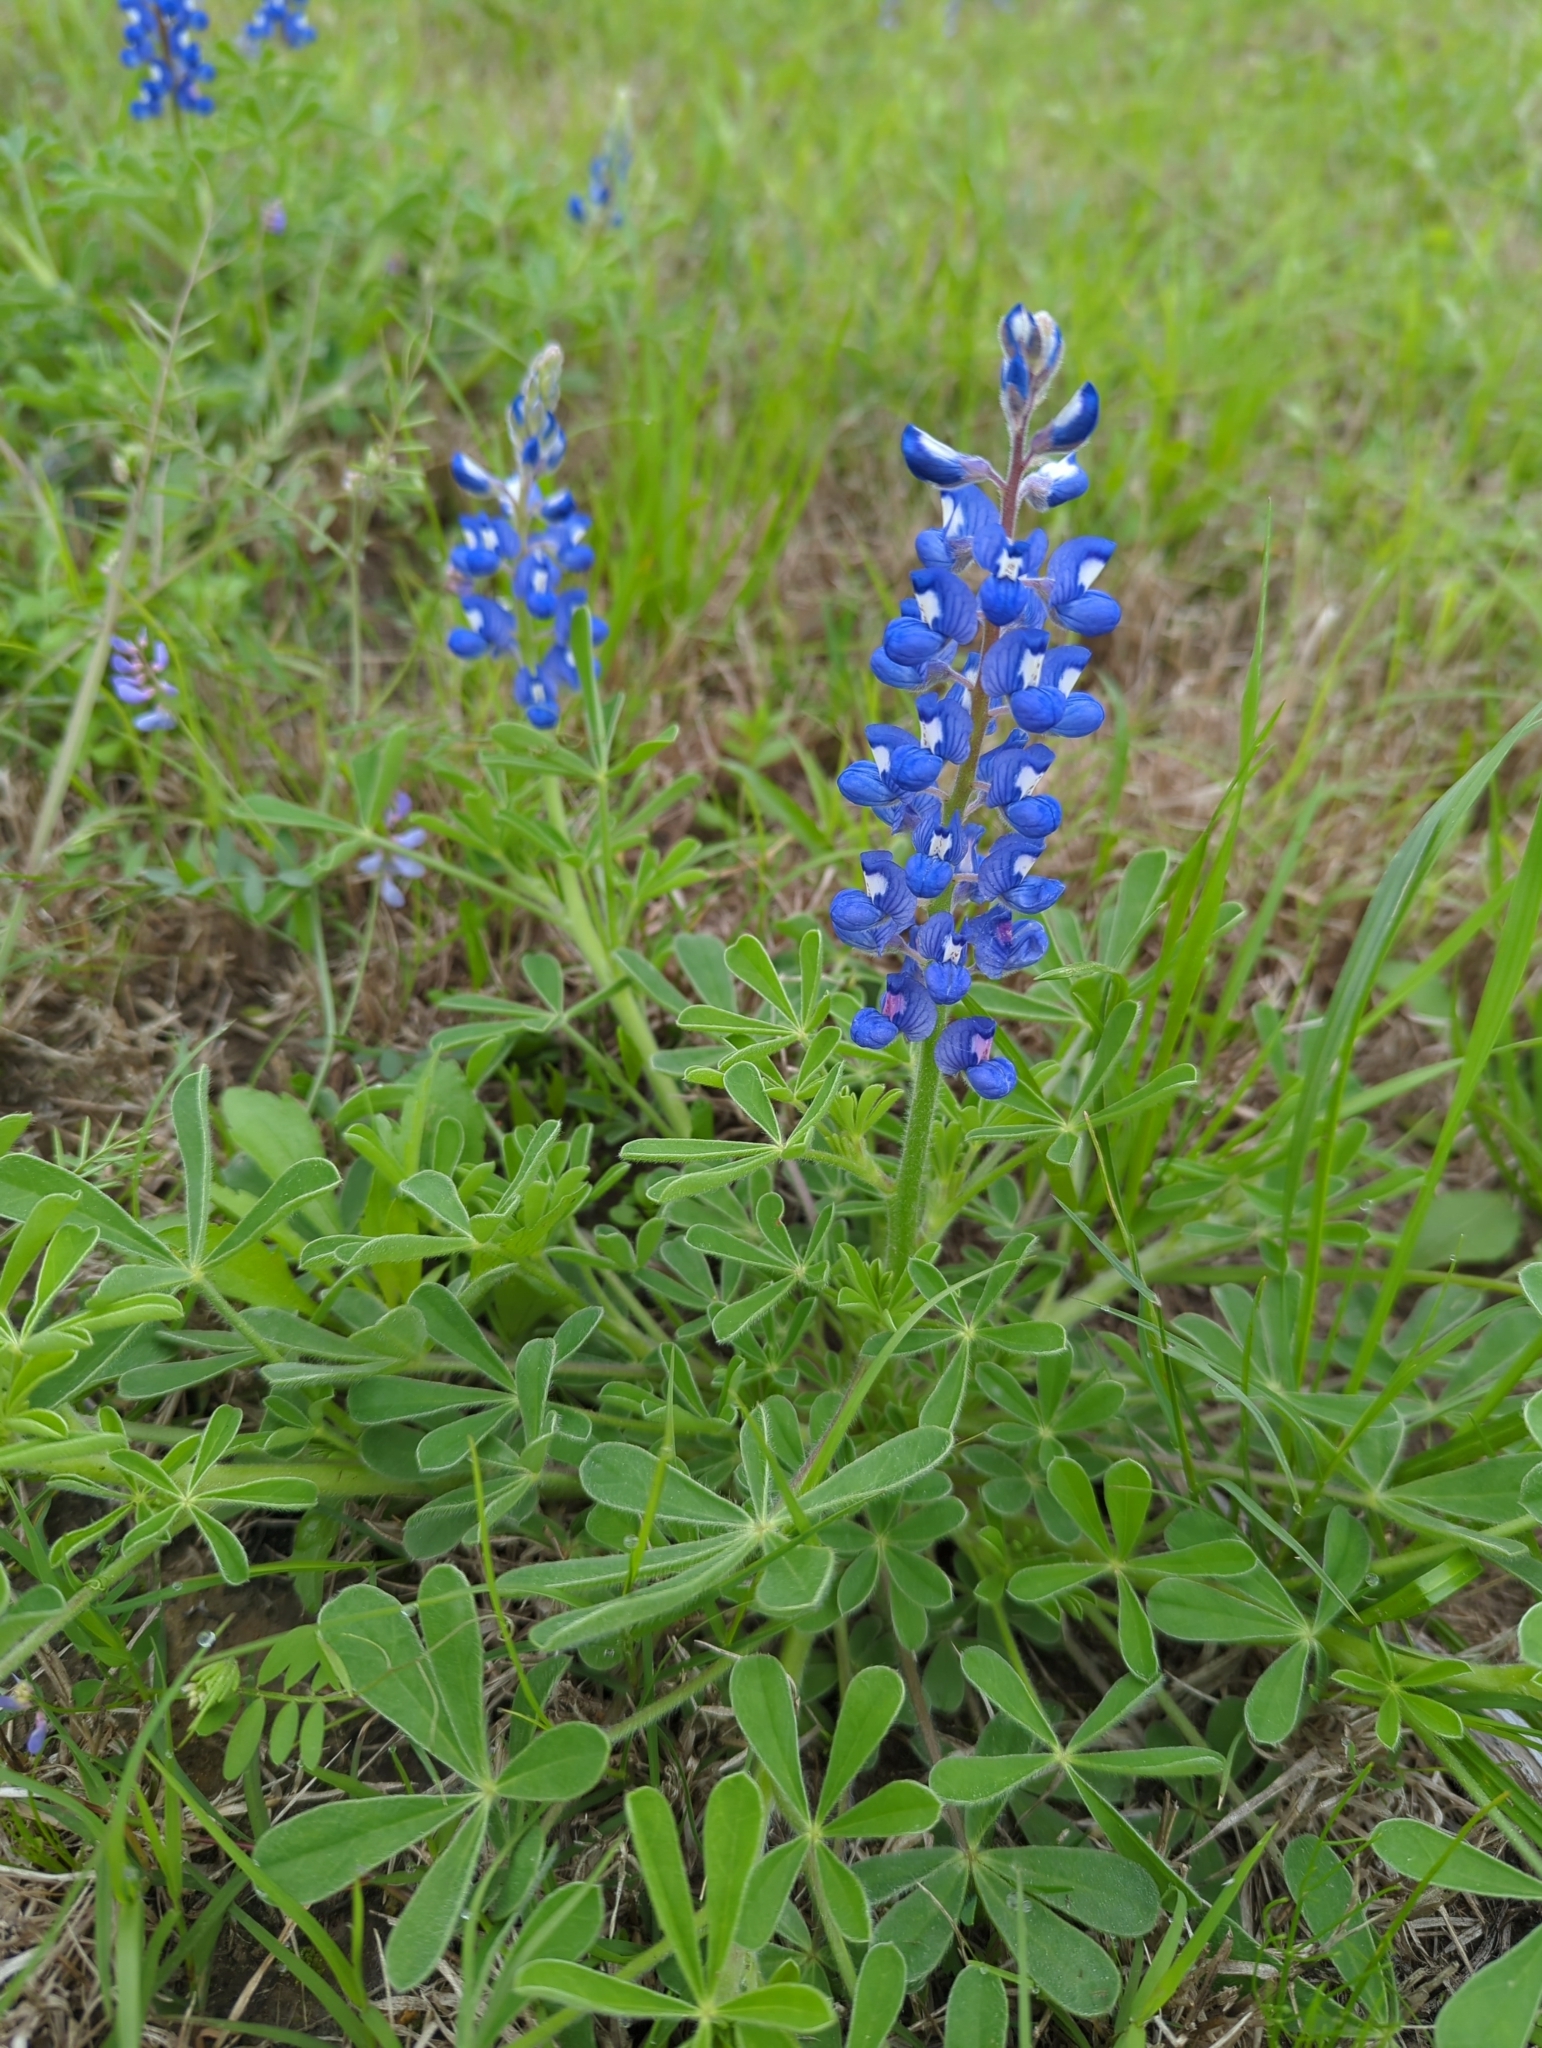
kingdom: Plantae
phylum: Tracheophyta
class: Magnoliopsida
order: Fabales
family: Fabaceae
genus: Lupinus
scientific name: Lupinus subcarnosus
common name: Texas bluebonnet
